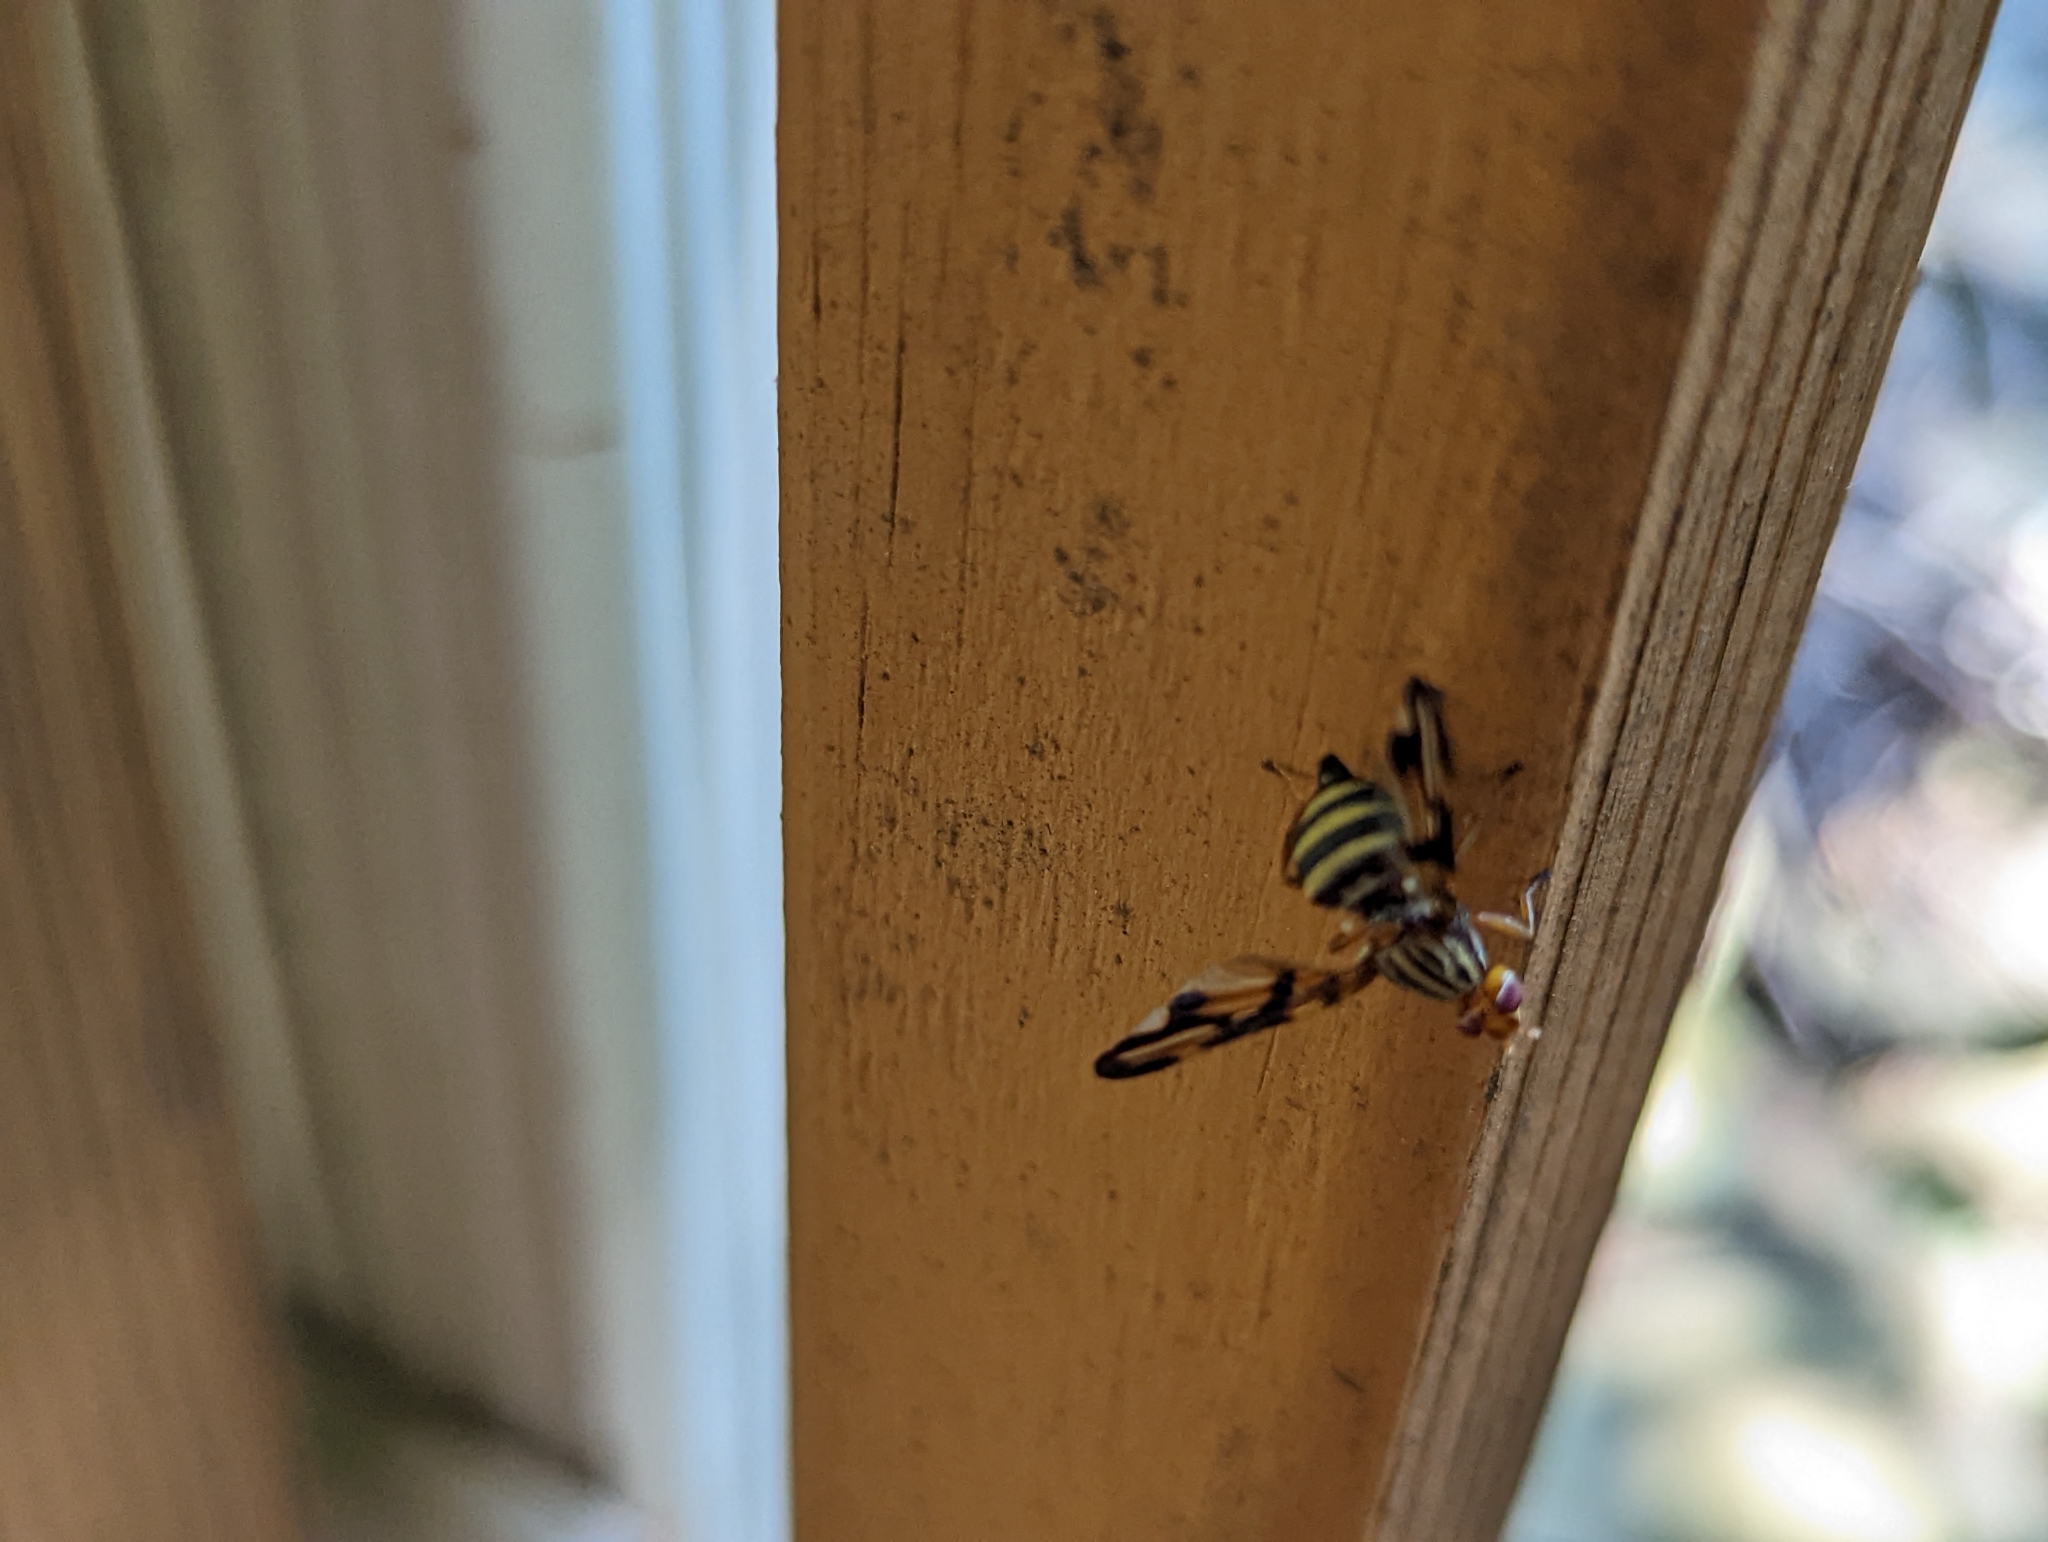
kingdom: Animalia
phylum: Arthropoda
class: Insecta
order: Diptera
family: Ulidiidae
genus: Idana
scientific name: Idana marginata
